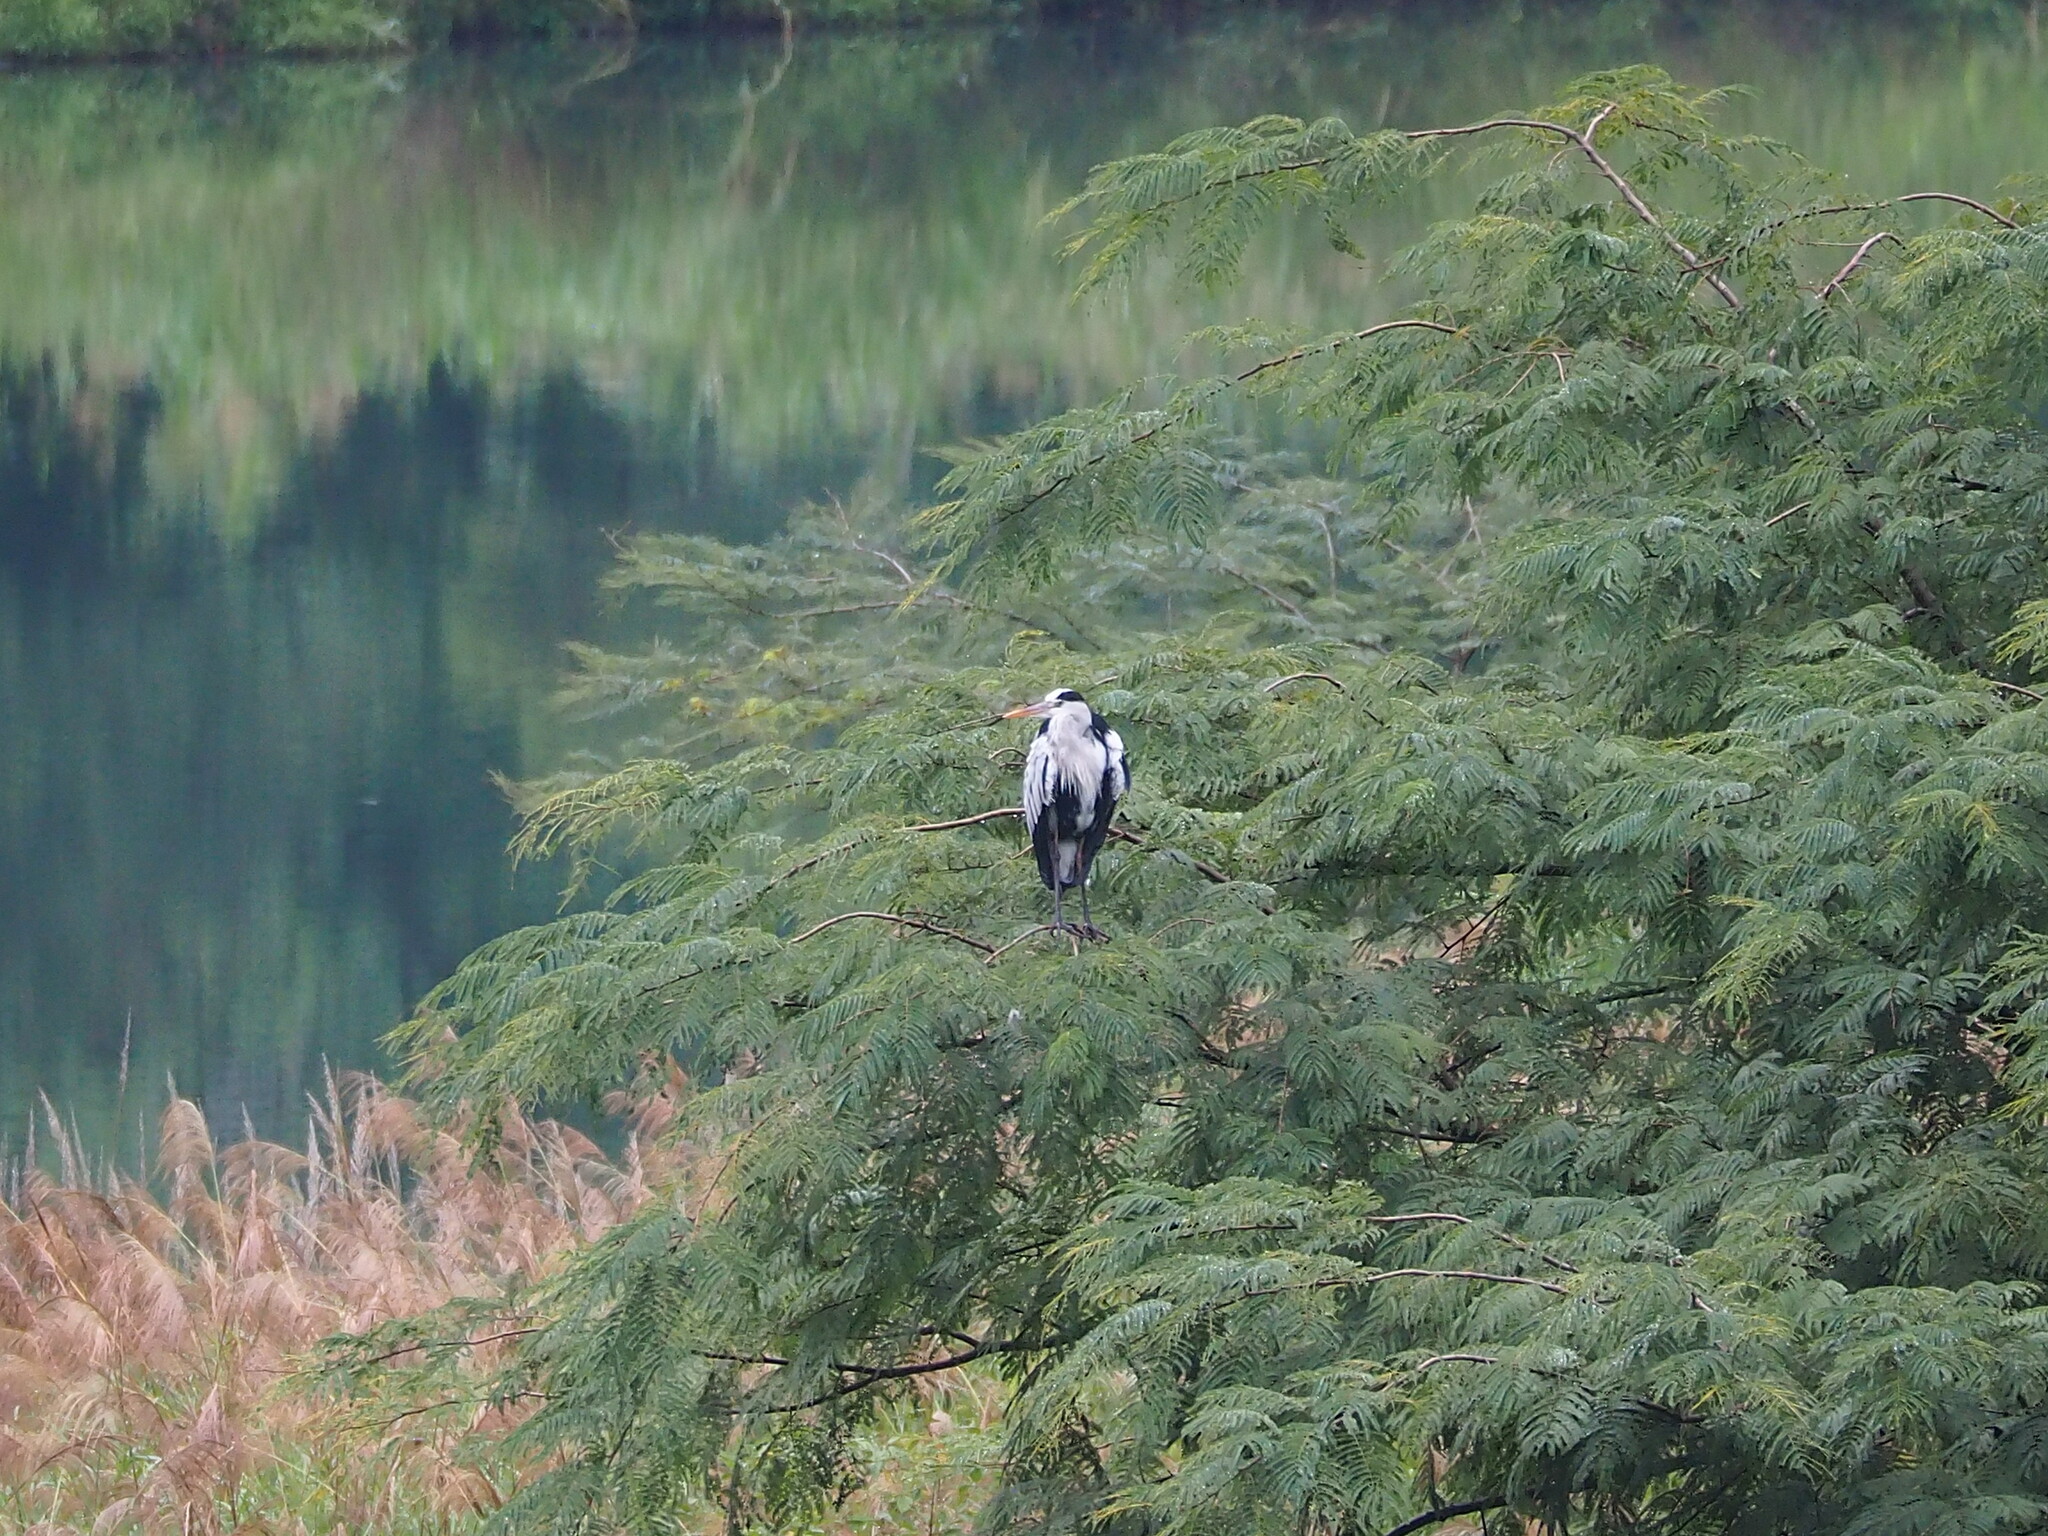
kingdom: Animalia
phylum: Chordata
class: Aves
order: Pelecaniformes
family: Ardeidae
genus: Ardea
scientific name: Ardea cinerea
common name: Grey heron
